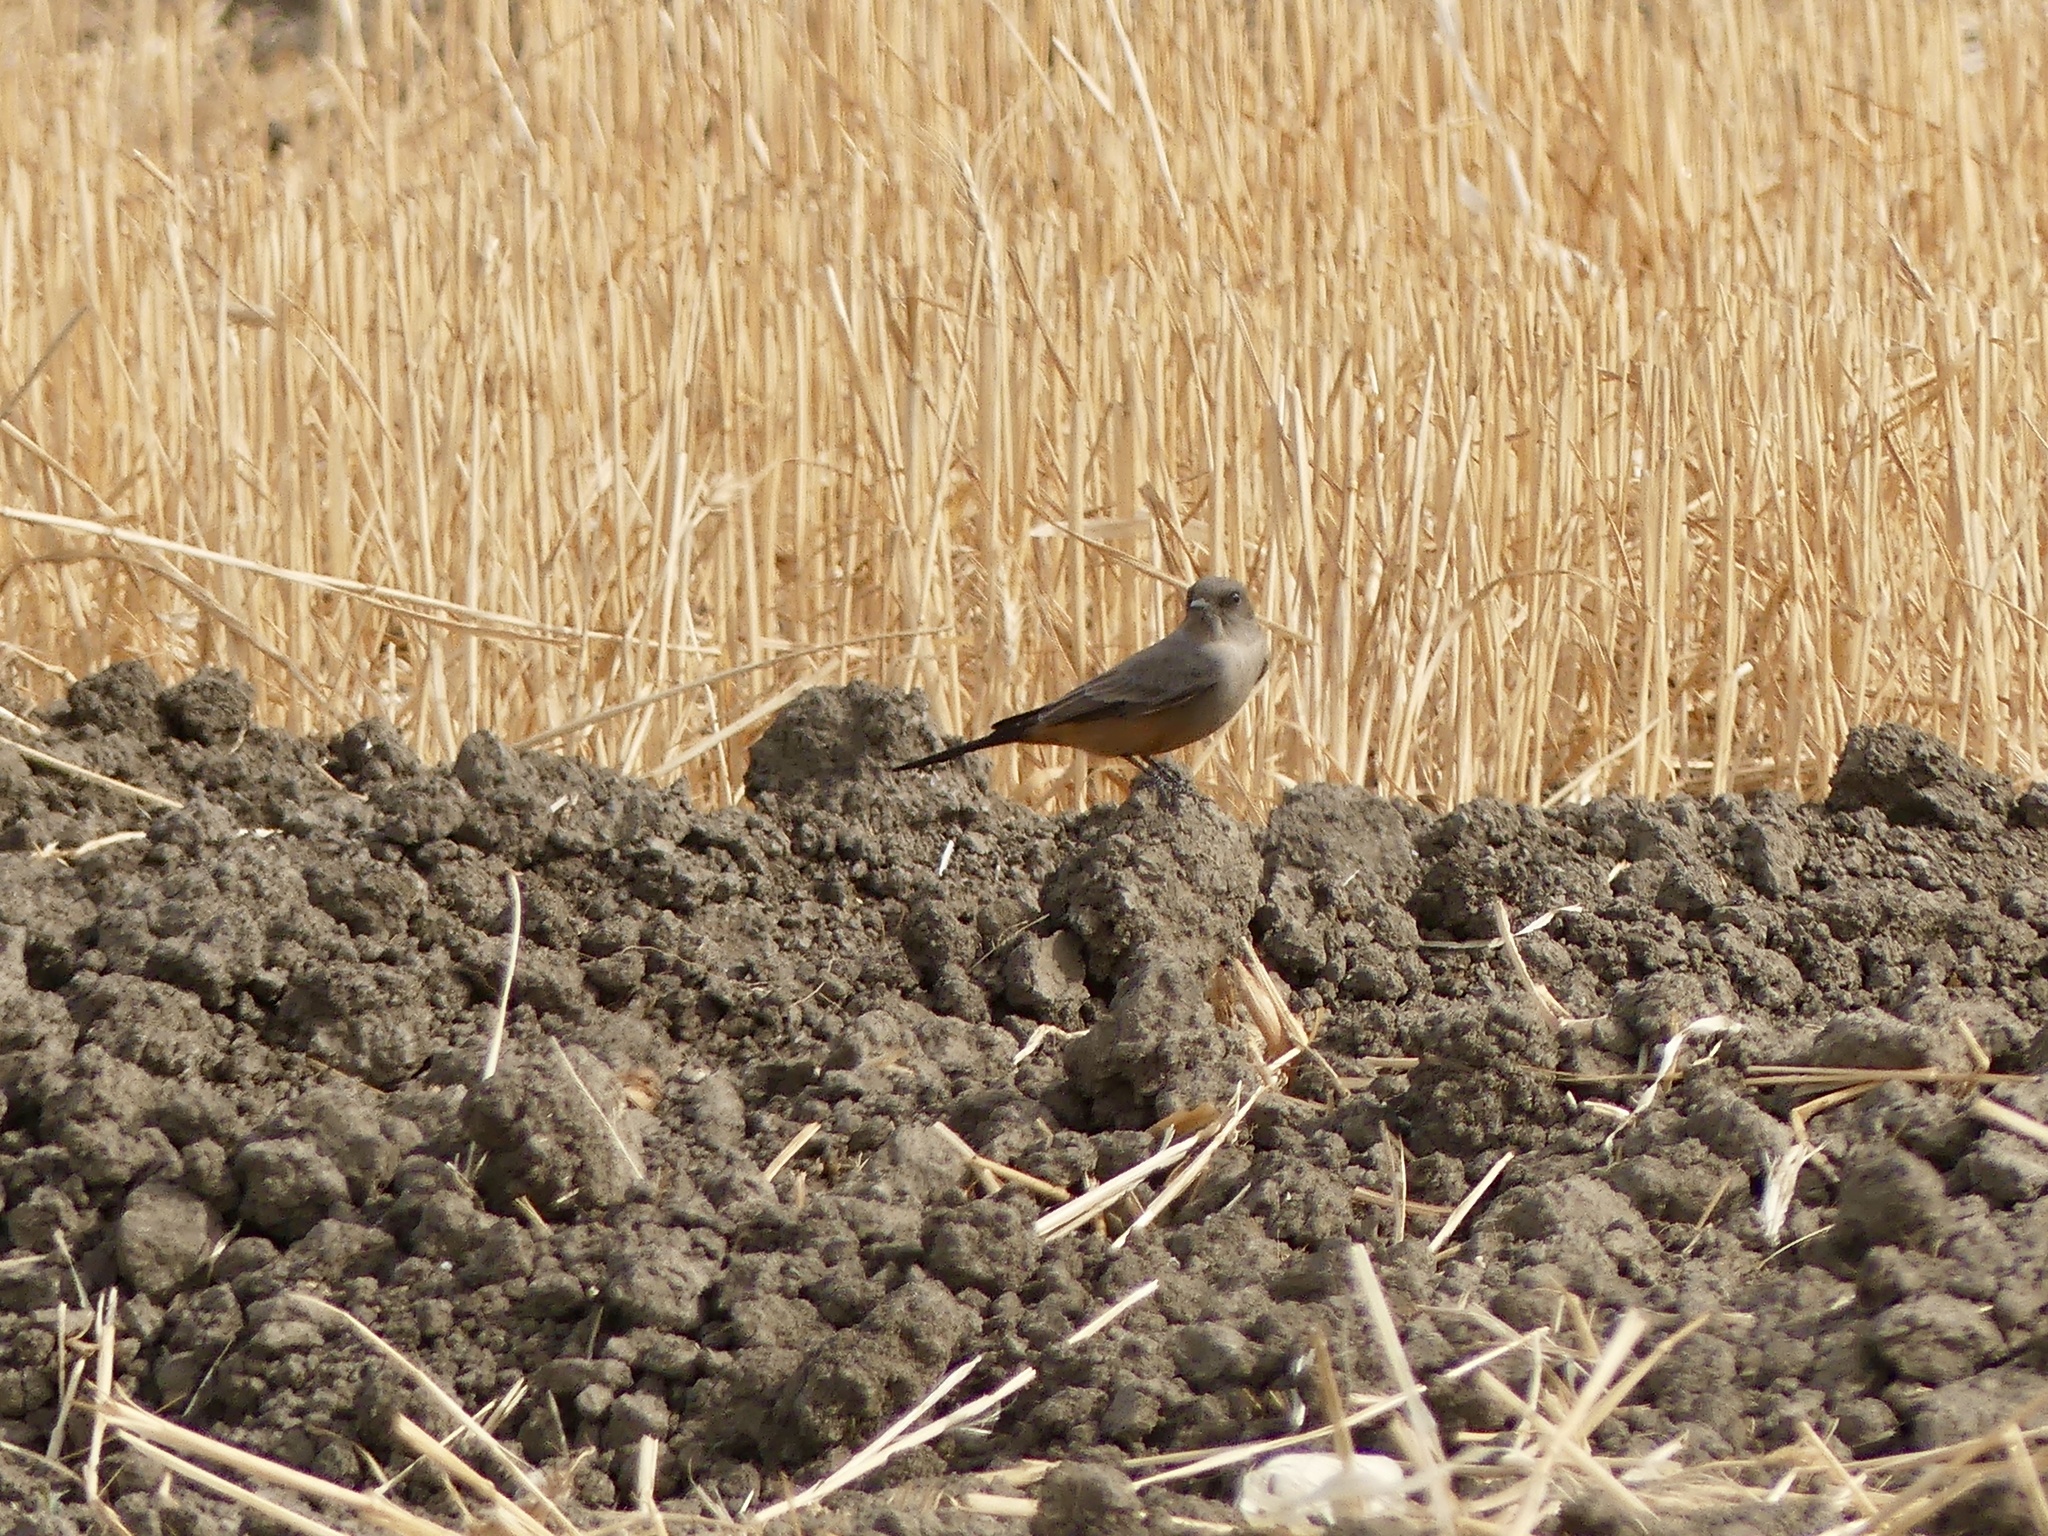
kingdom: Animalia
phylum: Chordata
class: Aves
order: Passeriformes
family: Tyrannidae
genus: Sayornis
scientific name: Sayornis saya
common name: Say's phoebe
